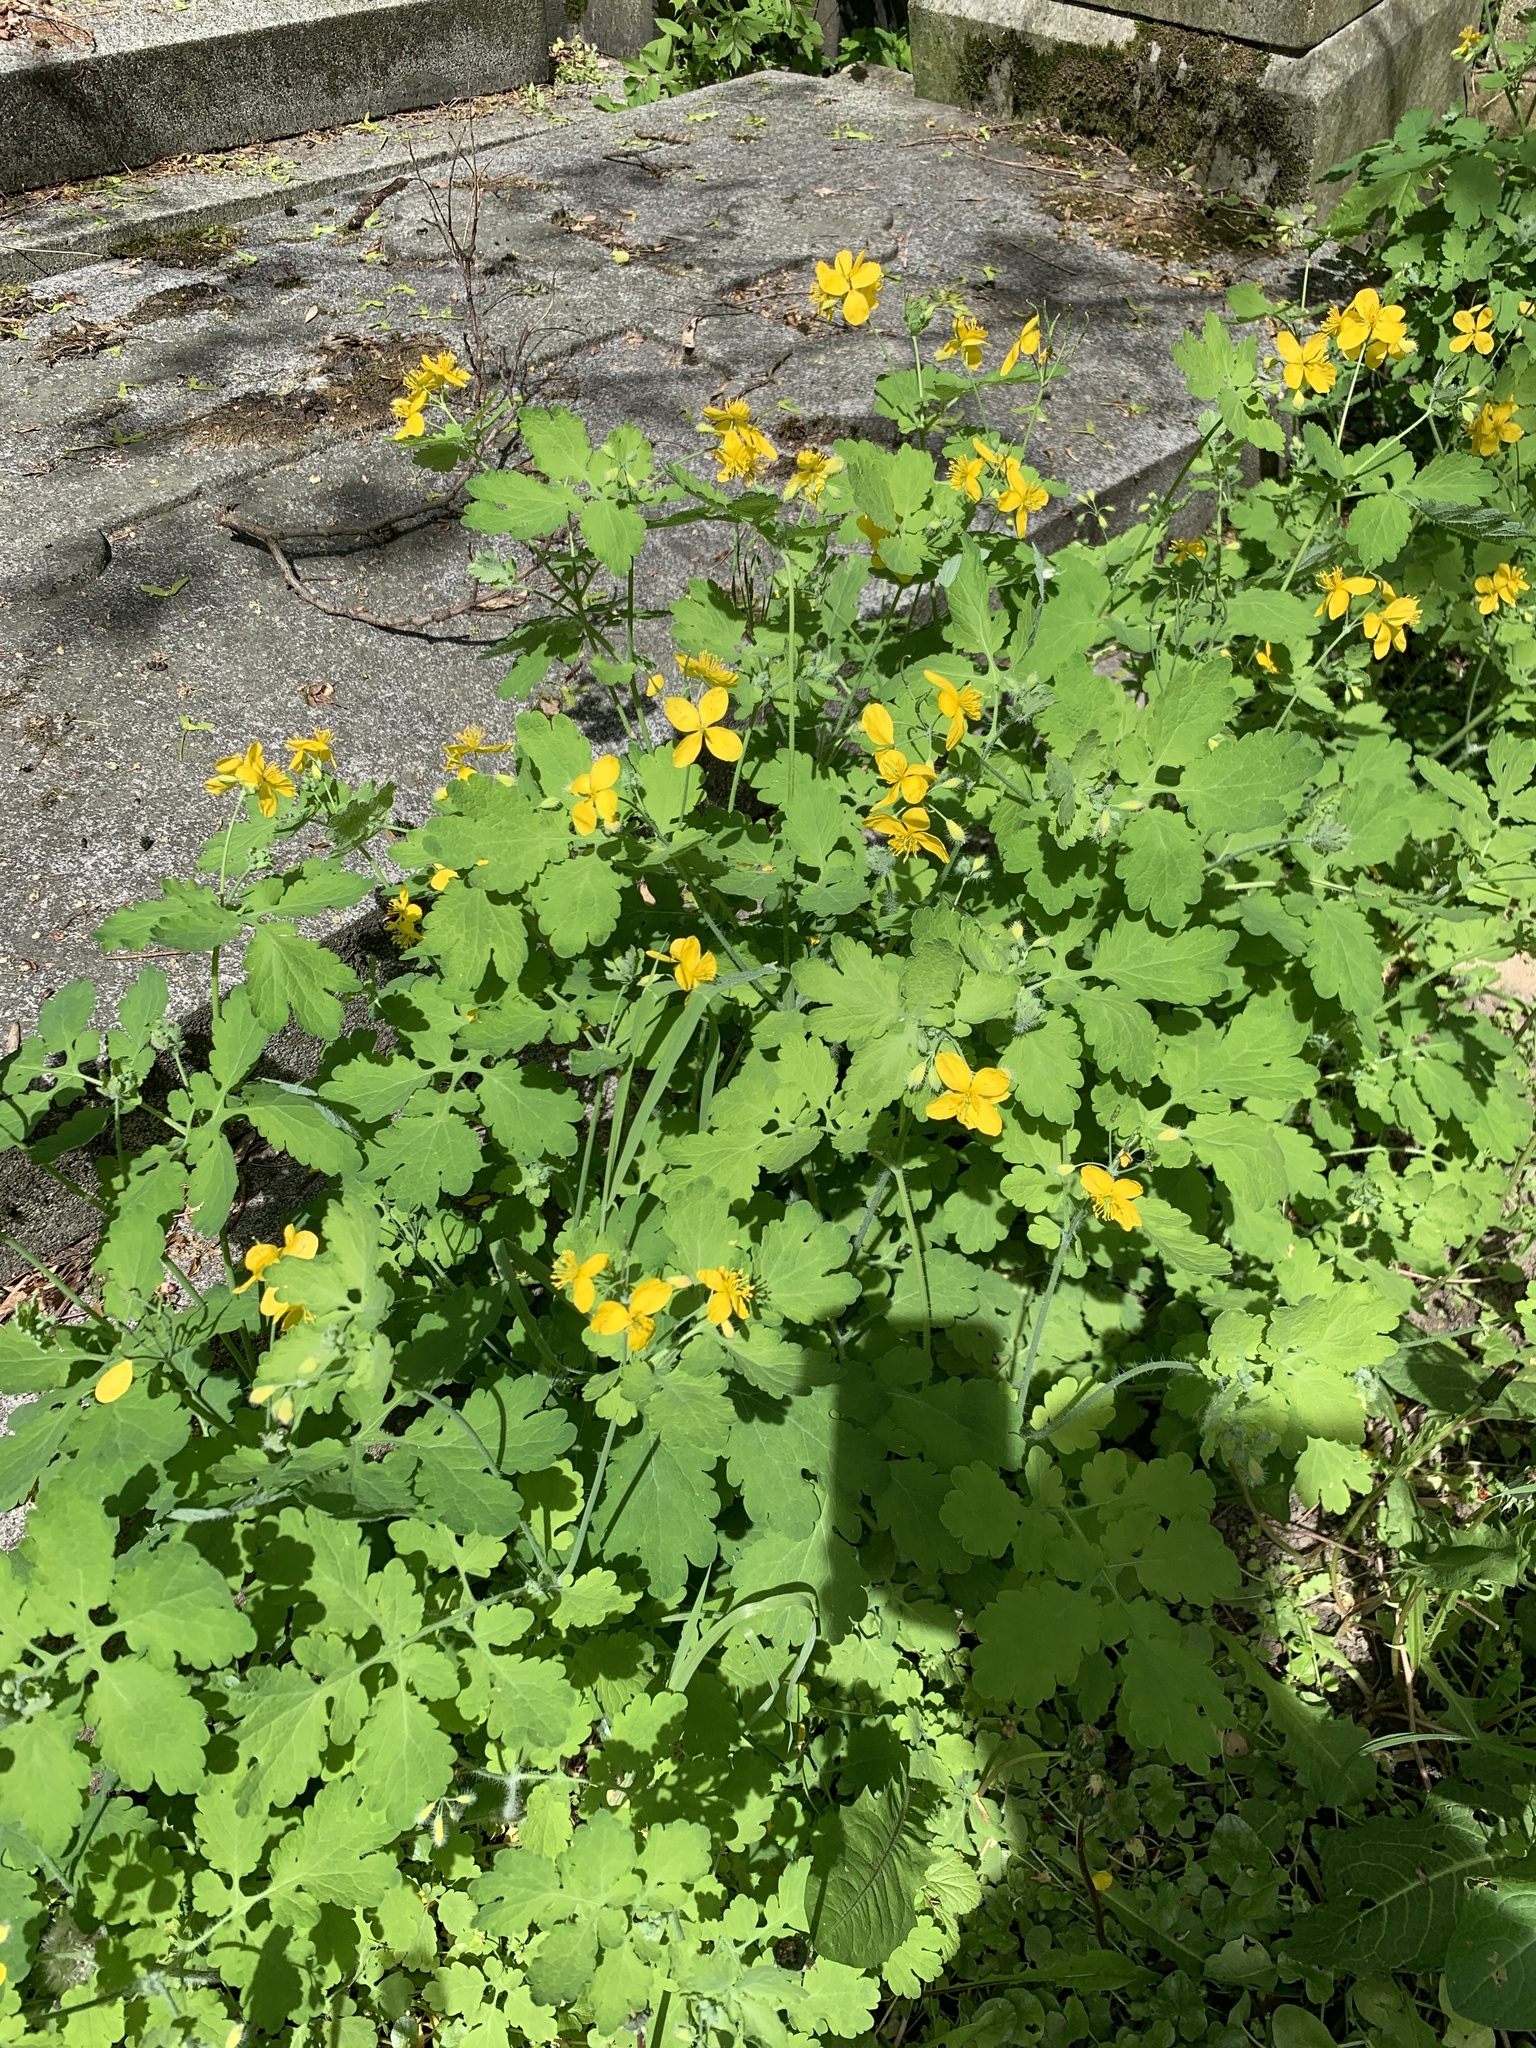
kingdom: Plantae
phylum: Tracheophyta
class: Magnoliopsida
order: Ranunculales
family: Papaveraceae
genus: Chelidonium
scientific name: Chelidonium majus
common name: Greater celandine
